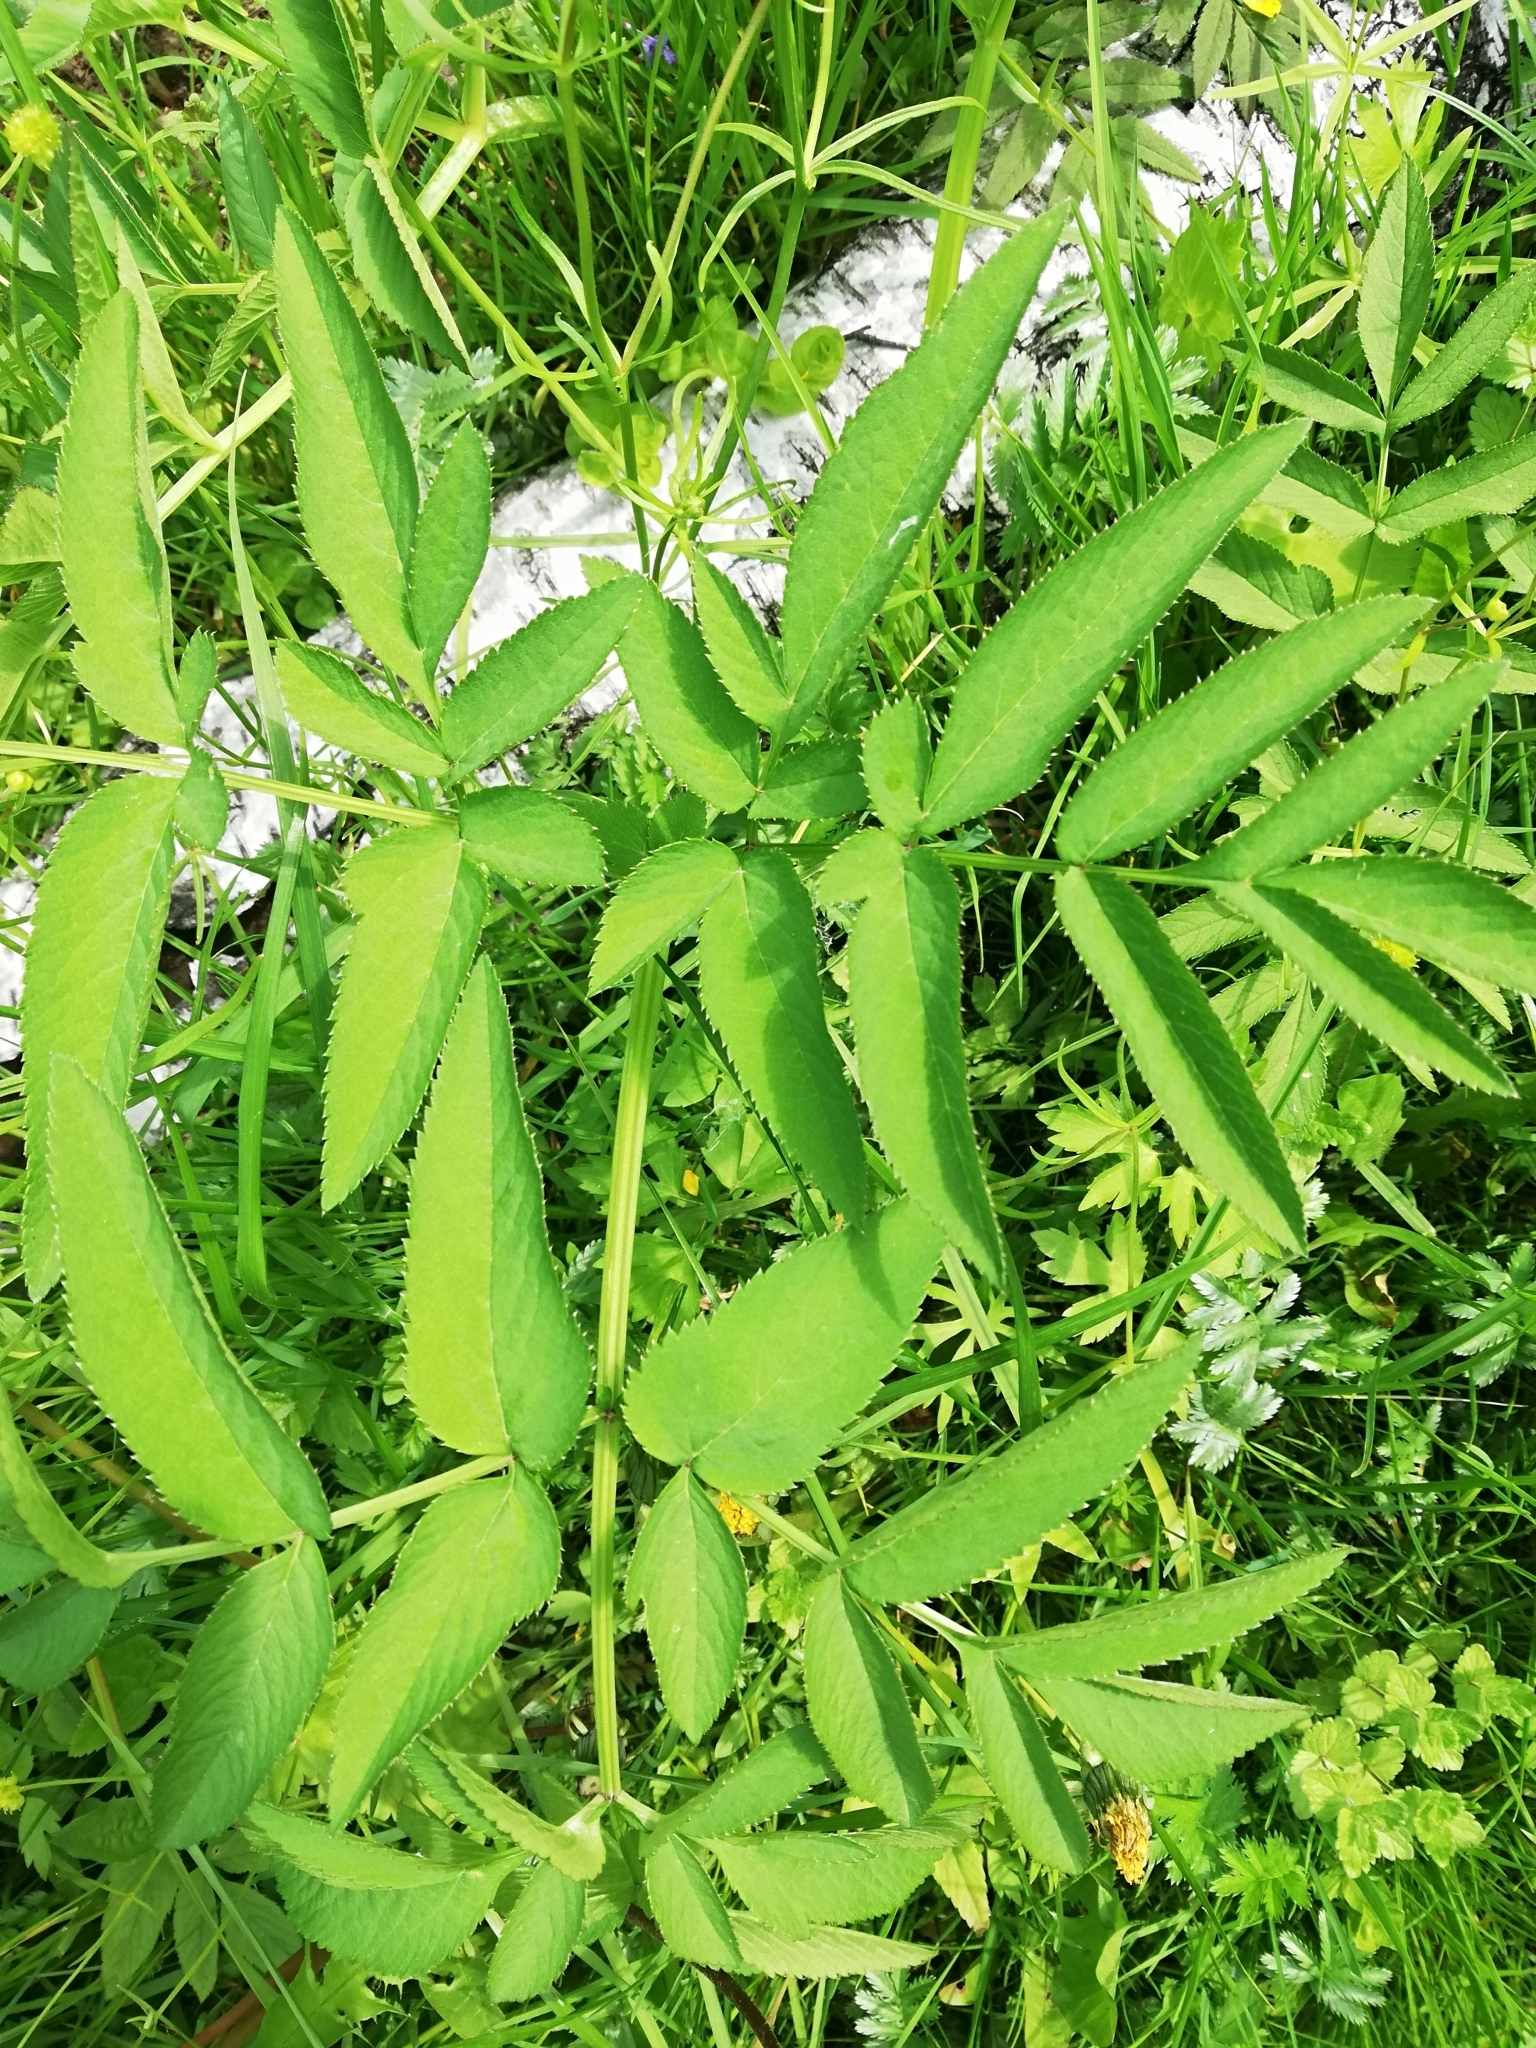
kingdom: Plantae
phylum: Tracheophyta
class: Magnoliopsida
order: Apiales
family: Apiaceae
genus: Angelica
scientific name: Angelica sylvestris
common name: Wild angelica
